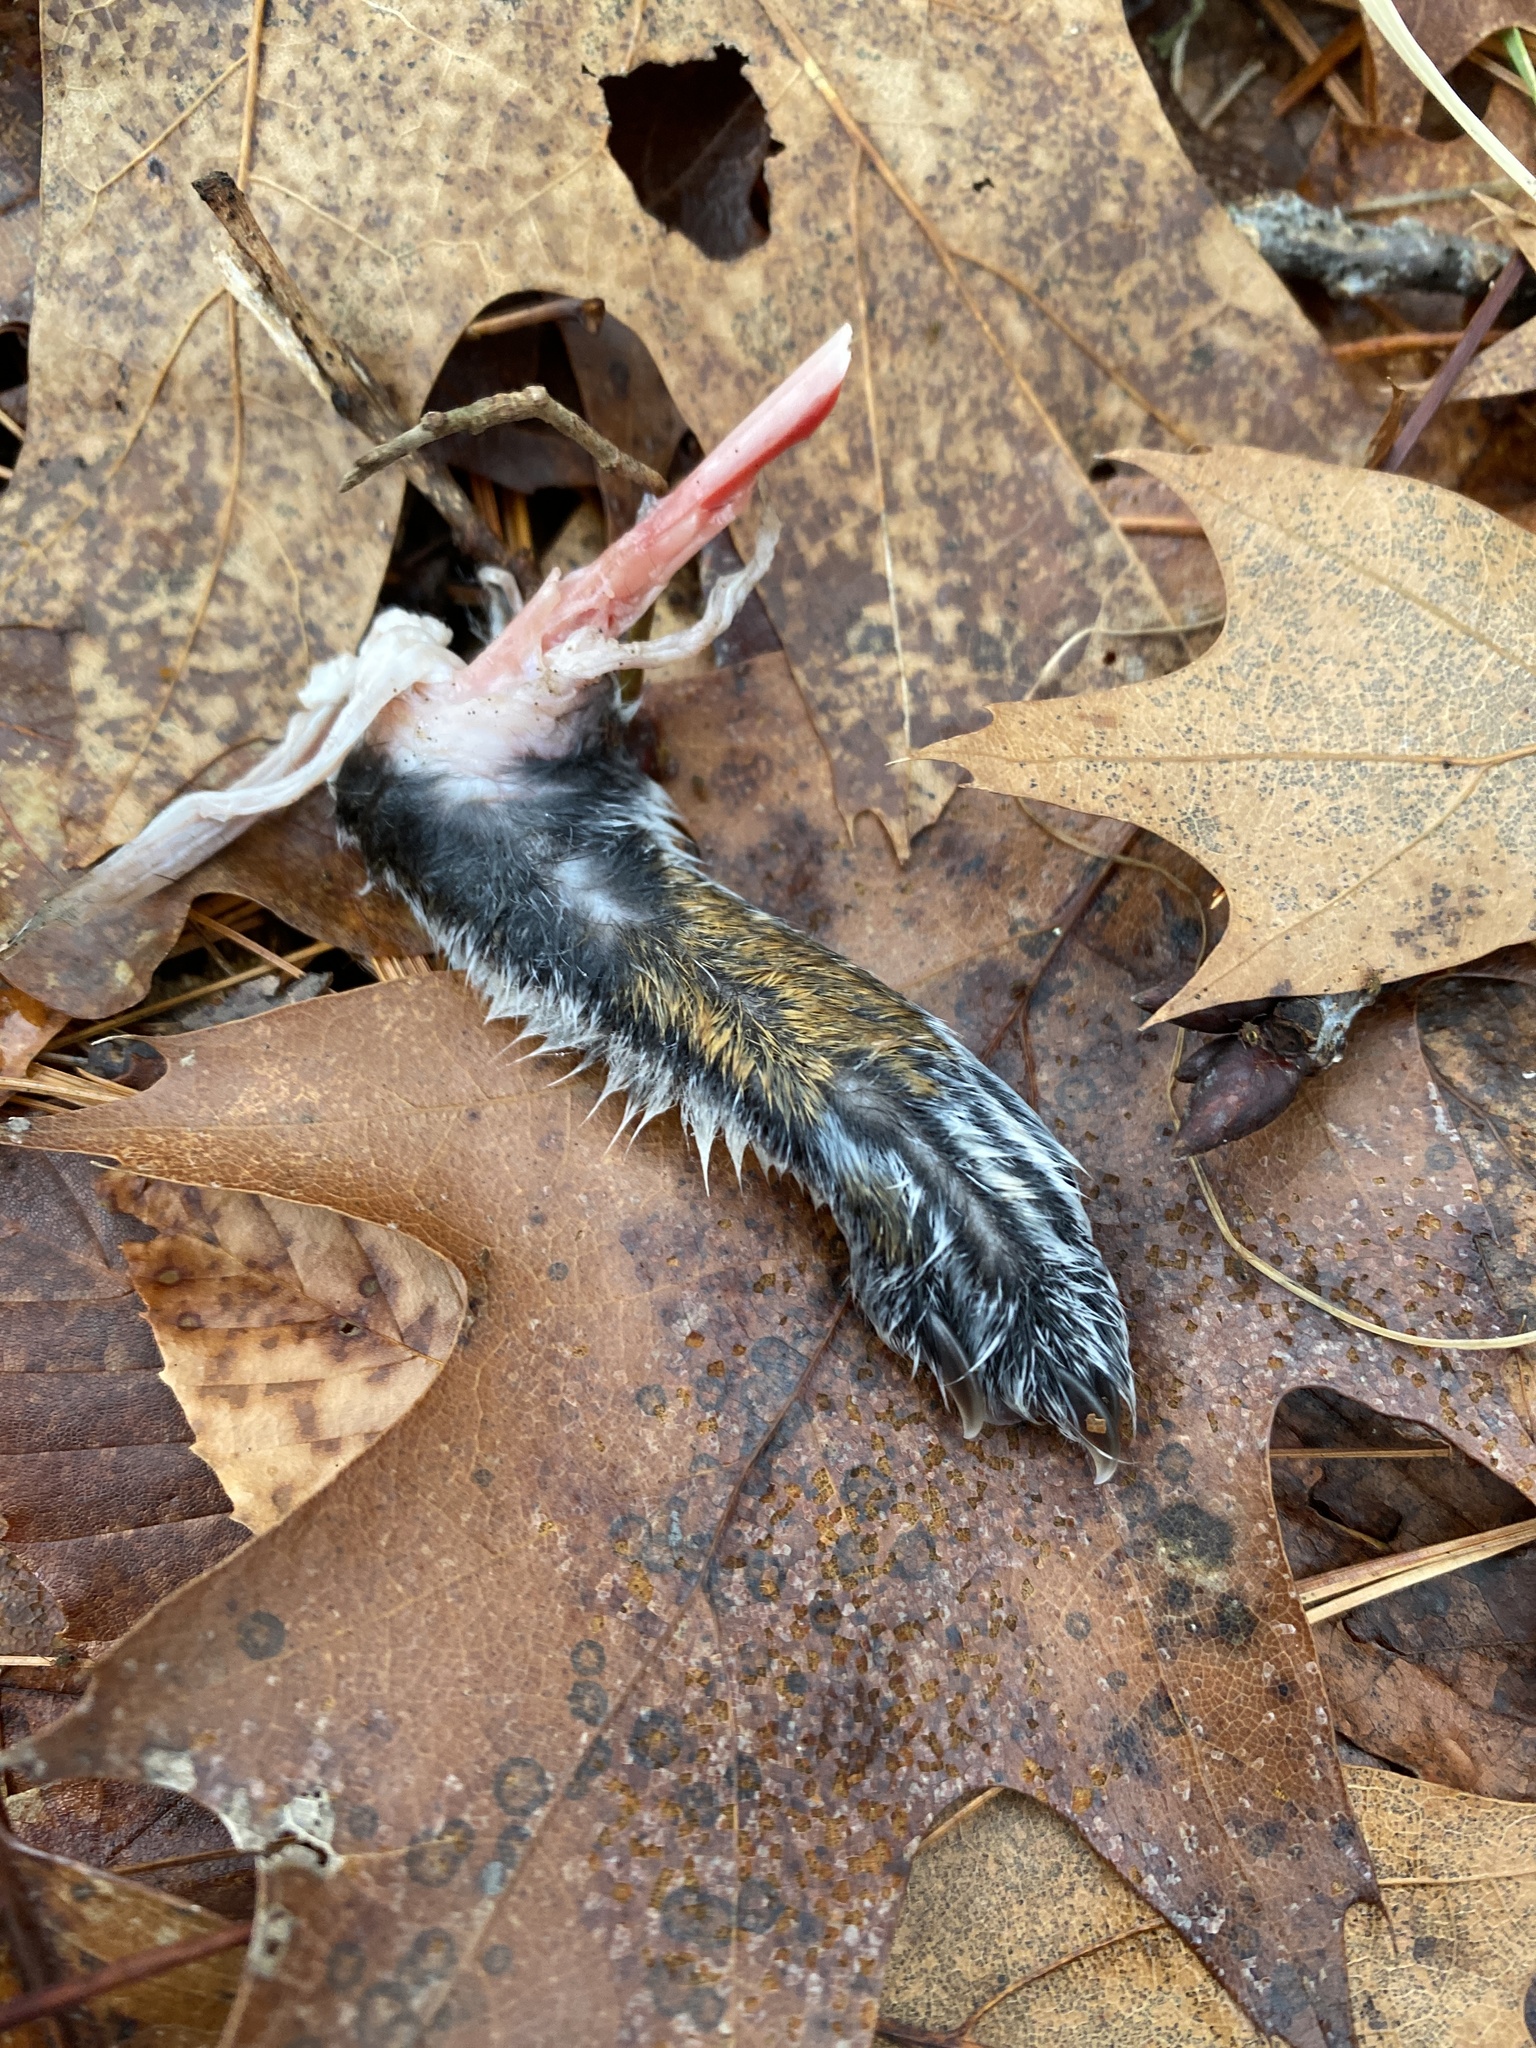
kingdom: Animalia
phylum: Chordata
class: Mammalia
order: Rodentia
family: Sciuridae
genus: Sciurus
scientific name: Sciurus carolinensis
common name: Eastern gray squirrel
